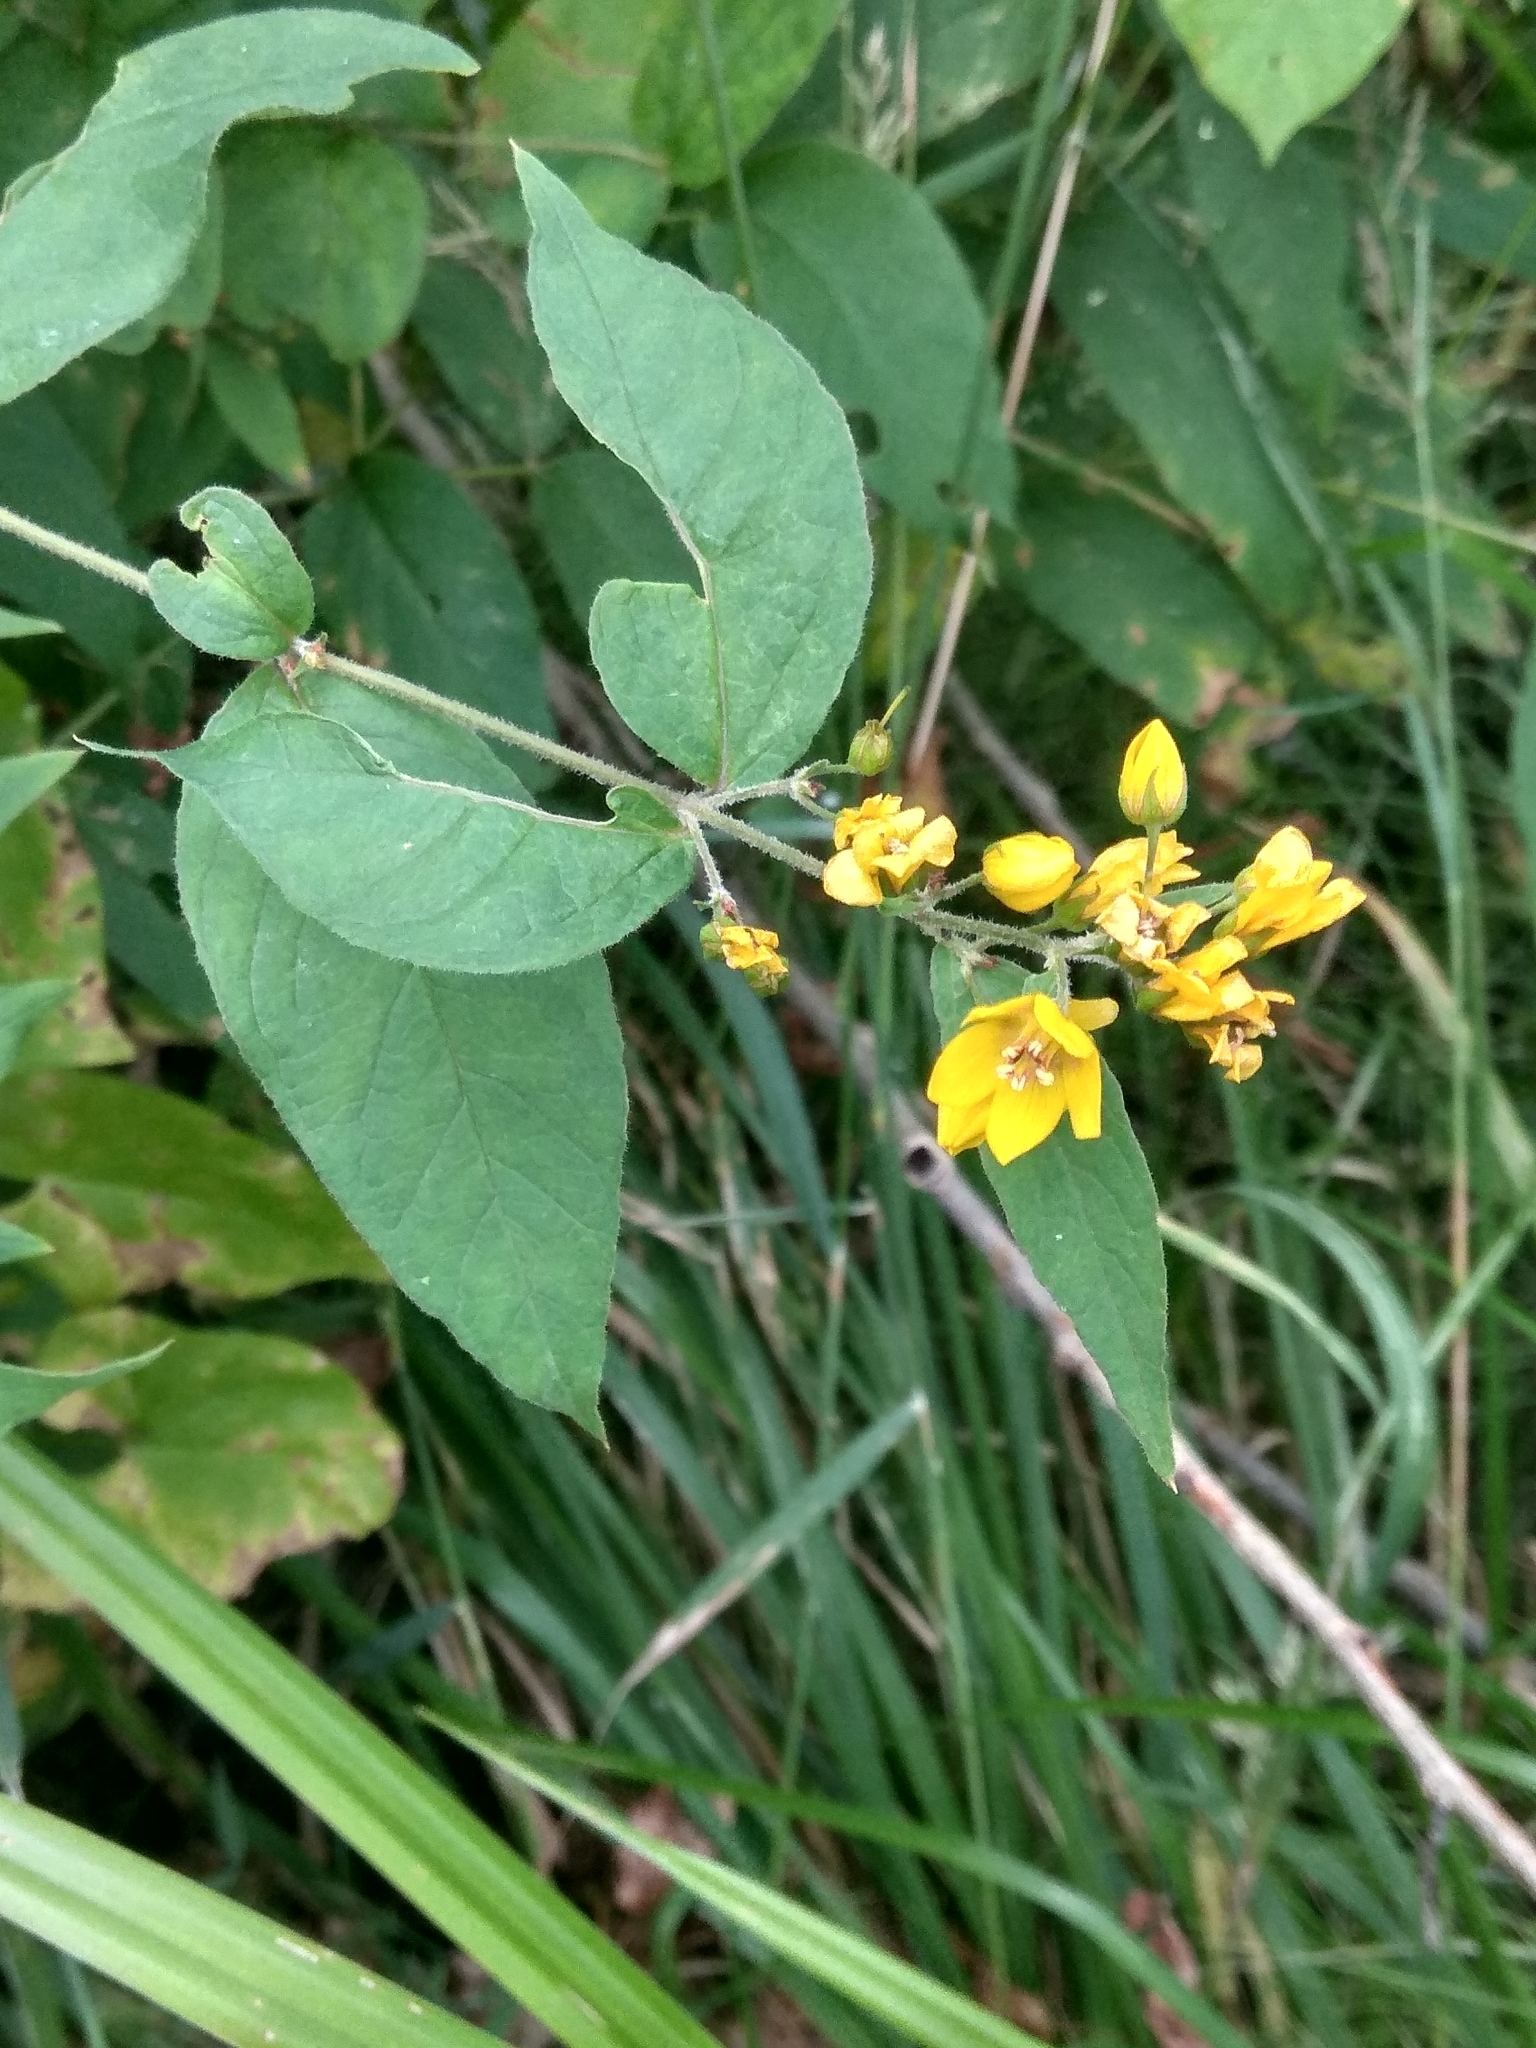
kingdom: Plantae
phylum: Tracheophyta
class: Magnoliopsida
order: Ericales
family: Primulaceae
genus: Lysimachia
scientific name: Lysimachia vulgaris
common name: Yellow loosestrife
